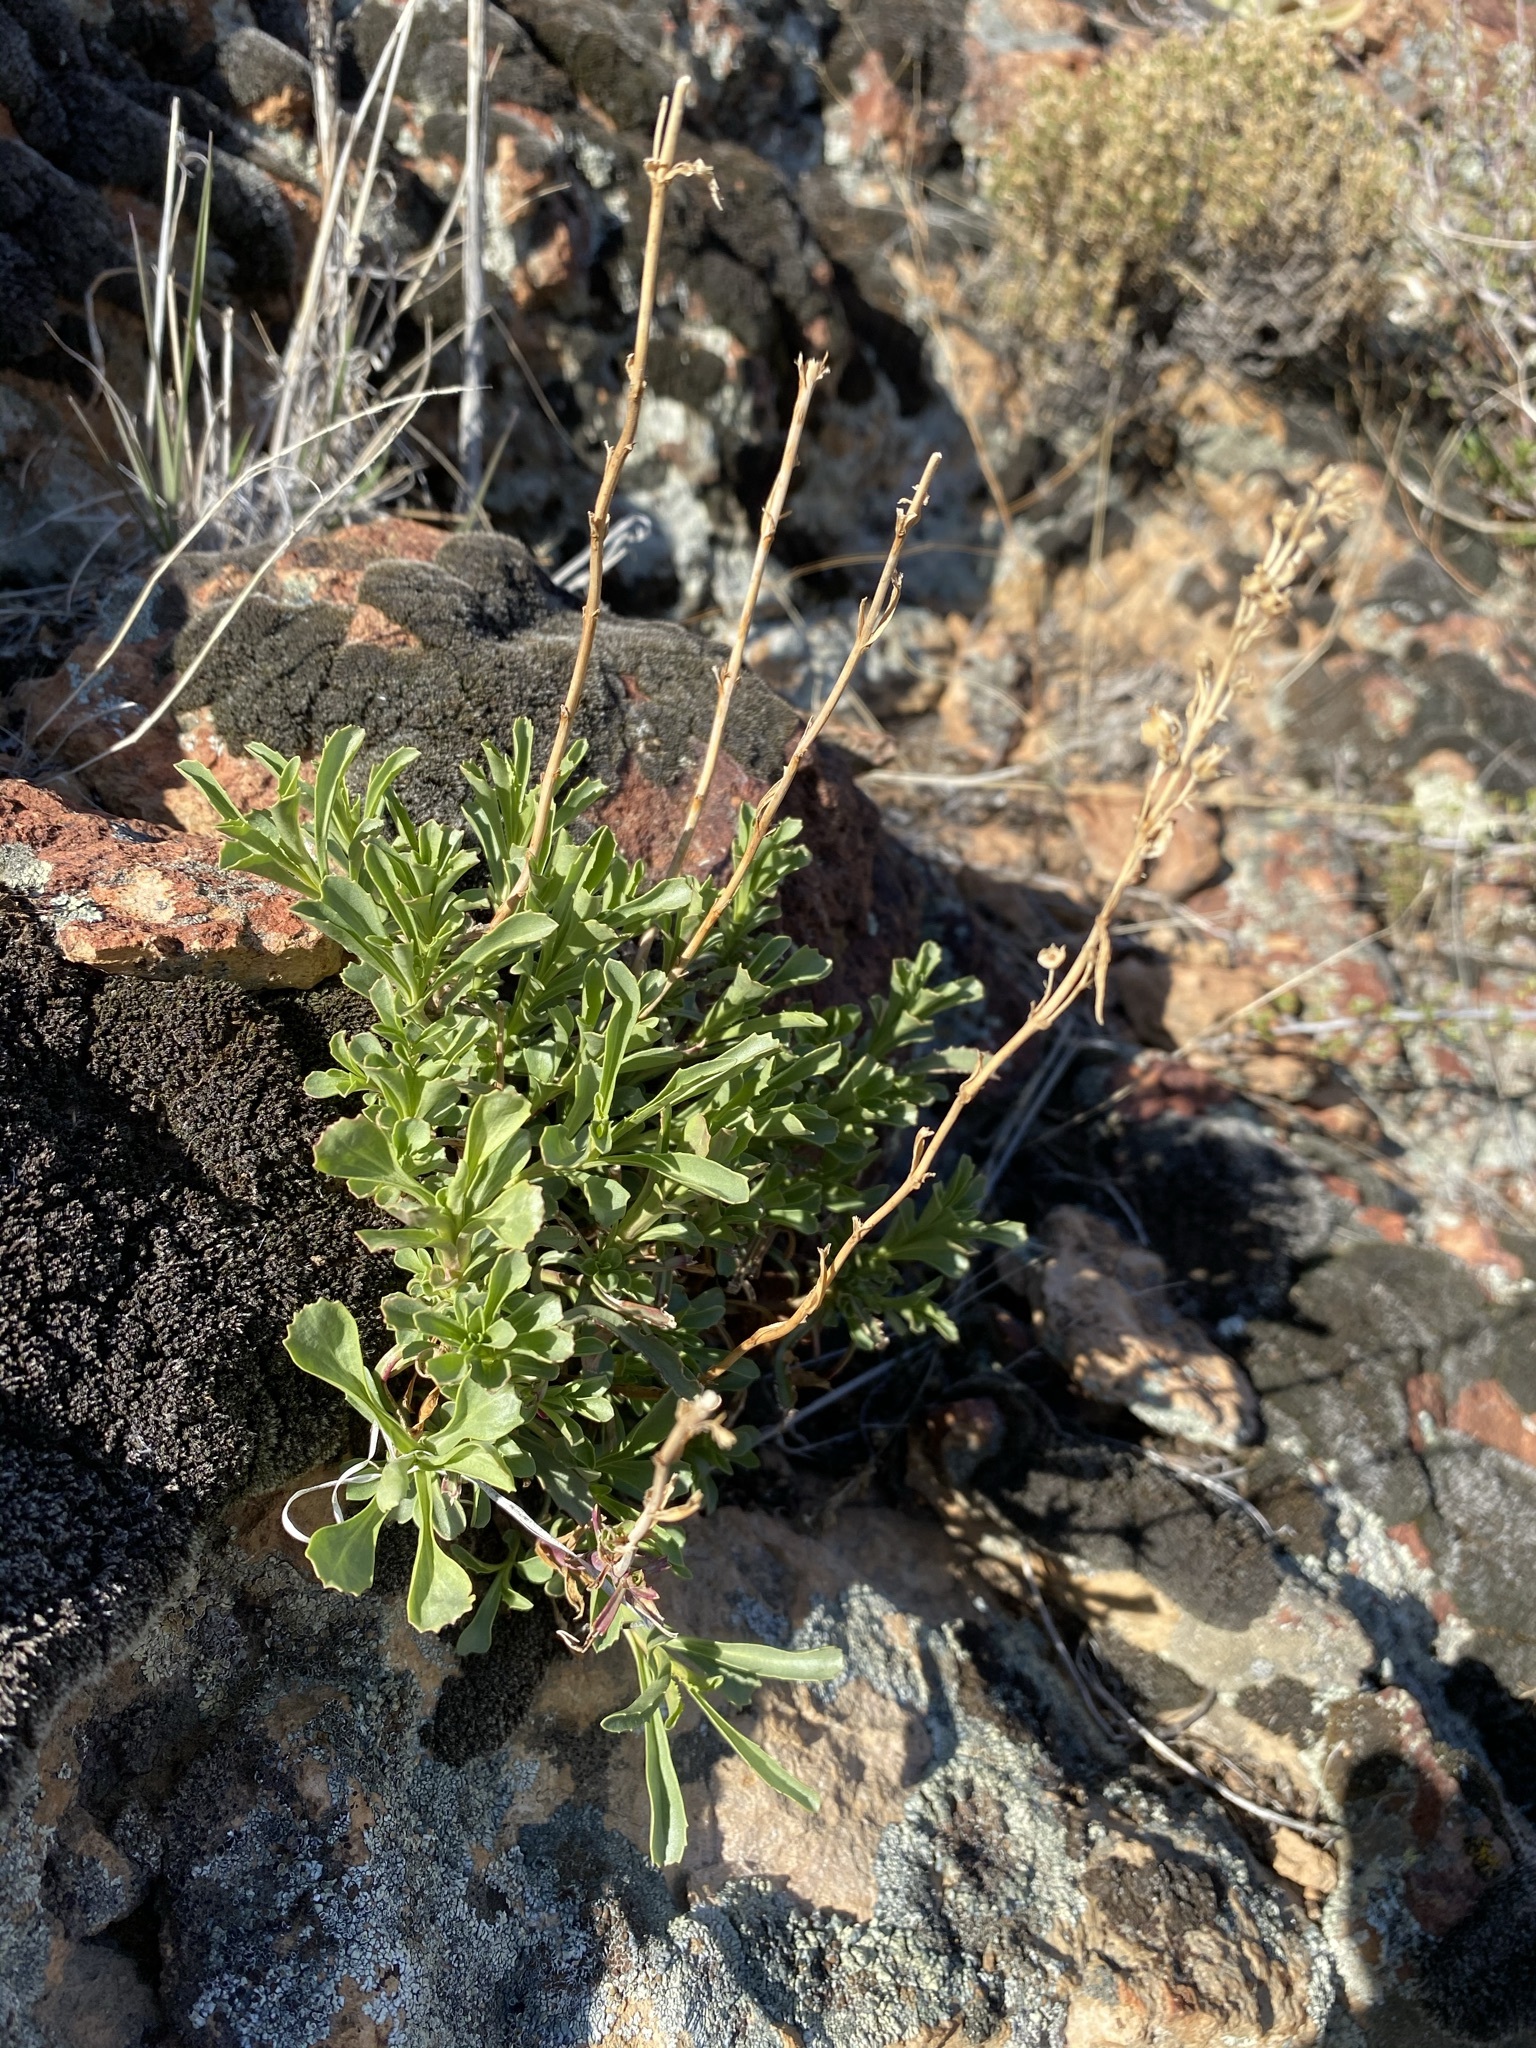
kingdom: Plantae
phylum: Tracheophyta
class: Magnoliopsida
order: Lamiales
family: Plantaginaceae
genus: Penstemon
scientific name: Penstemon deustus
